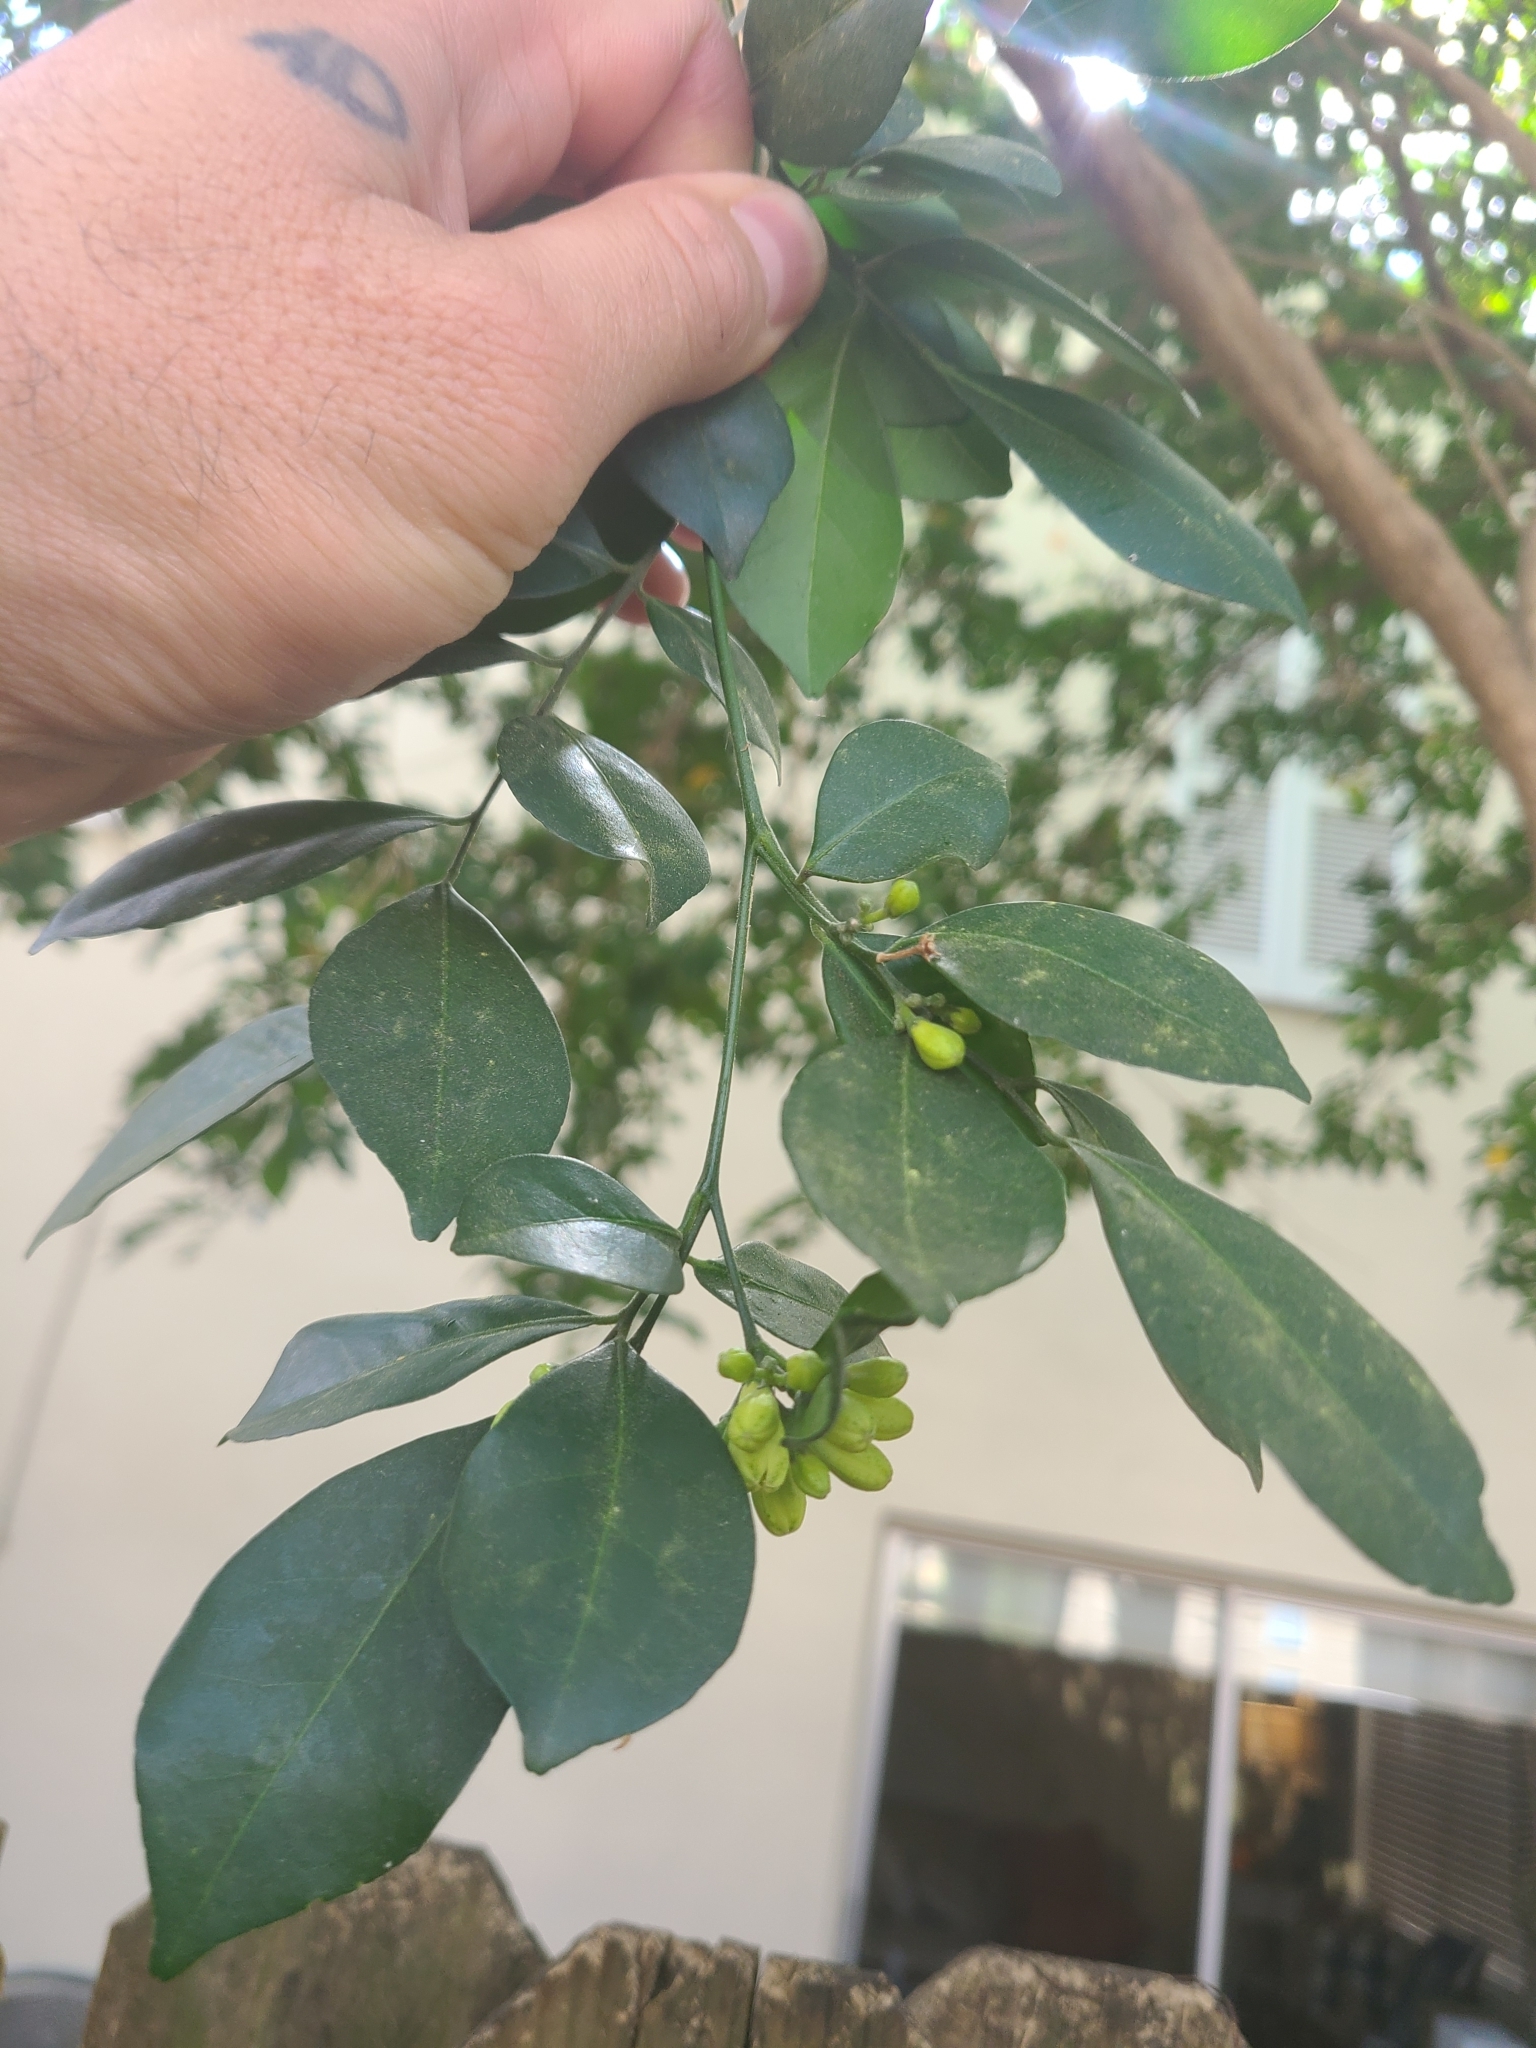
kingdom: Plantae
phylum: Tracheophyta
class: Magnoliopsida
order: Sapindales
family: Rutaceae
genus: Murraya
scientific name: Murraya paniculata
